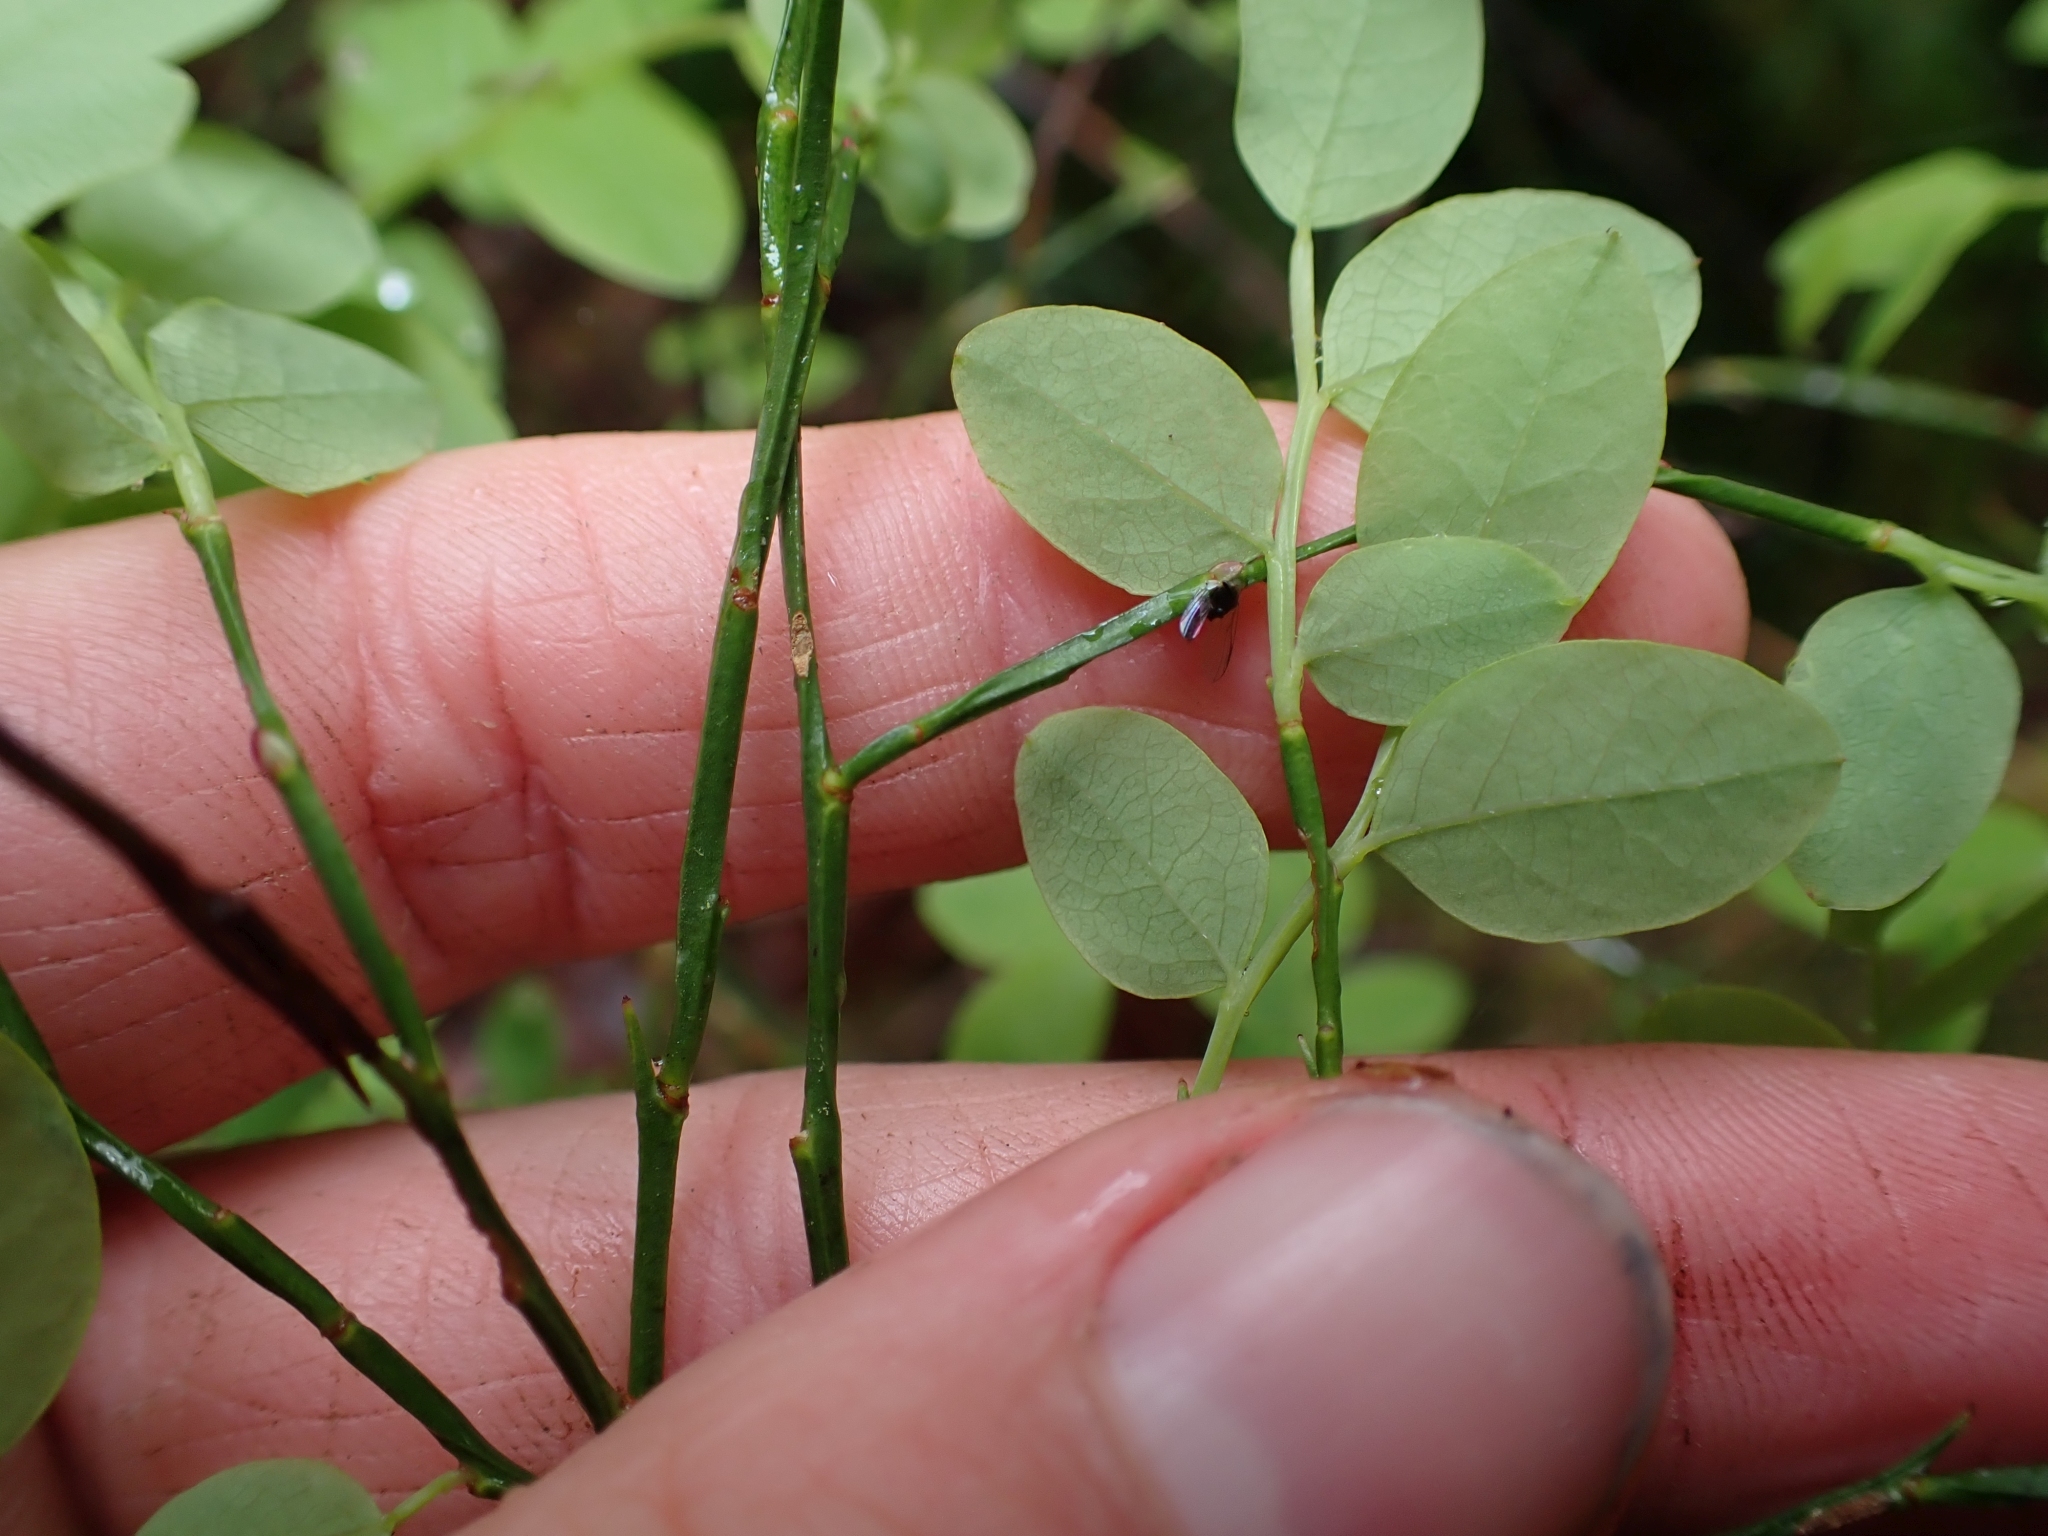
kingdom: Plantae
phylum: Tracheophyta
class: Magnoliopsida
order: Ericales
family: Ericaceae
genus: Vaccinium
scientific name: Vaccinium parvifolium
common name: Red-huckleberry
